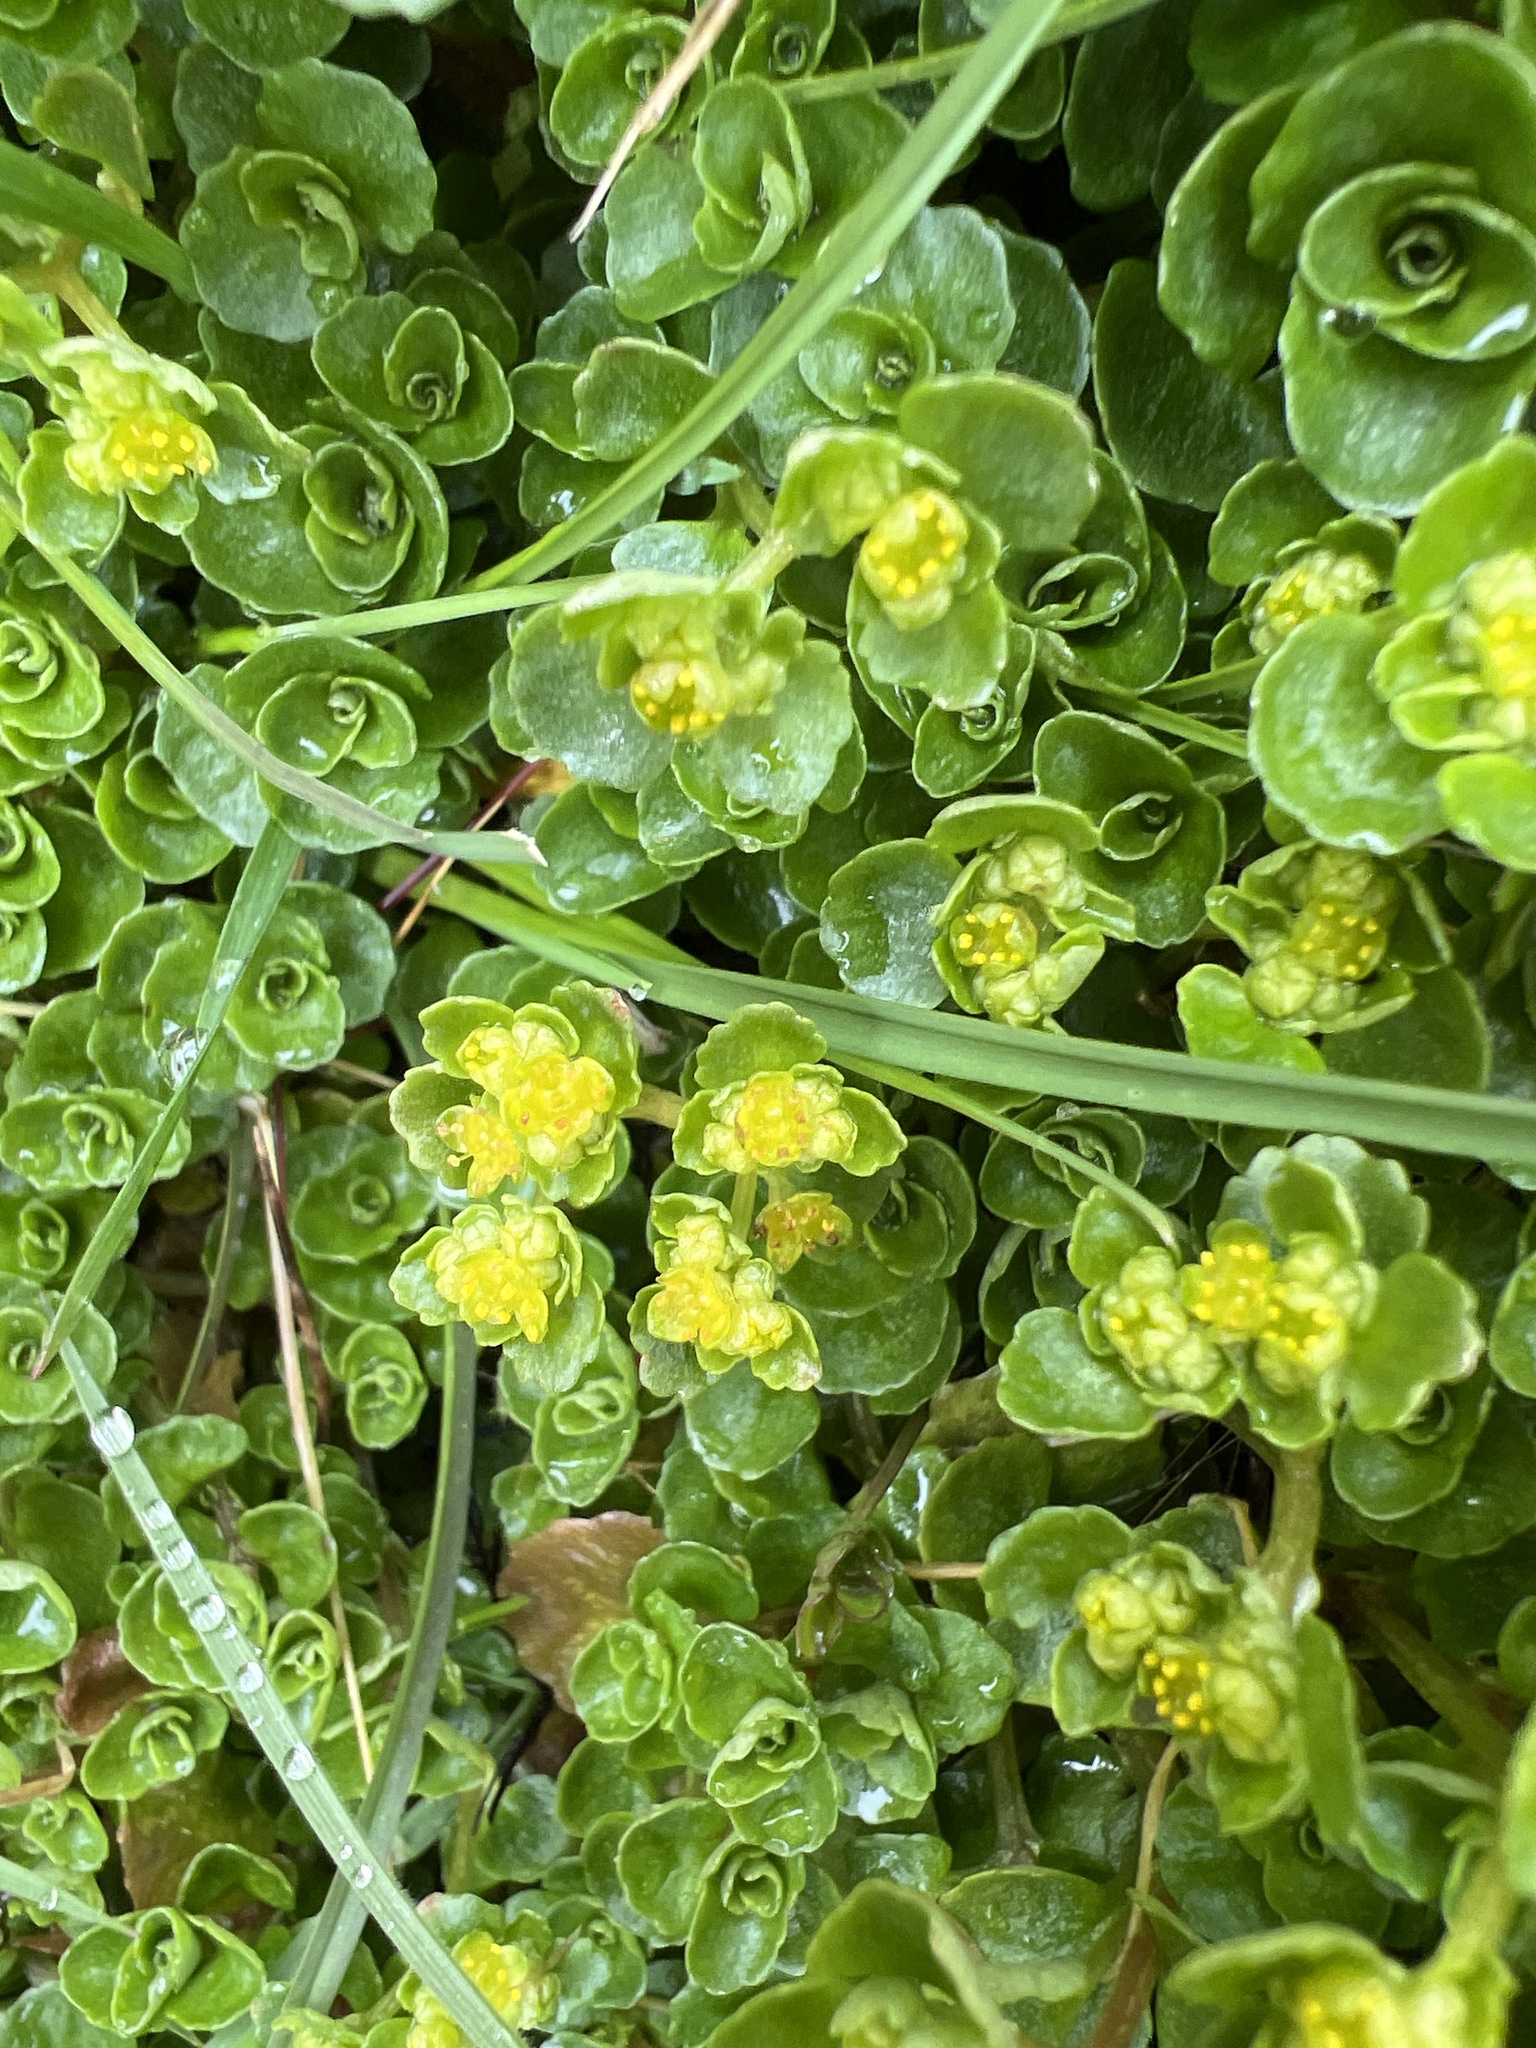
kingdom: Plantae
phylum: Tracheophyta
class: Magnoliopsida
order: Saxifragales
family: Saxifragaceae
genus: Chrysosplenium
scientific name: Chrysosplenium oppositifolium
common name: Opposite-leaved golden-saxifrage
